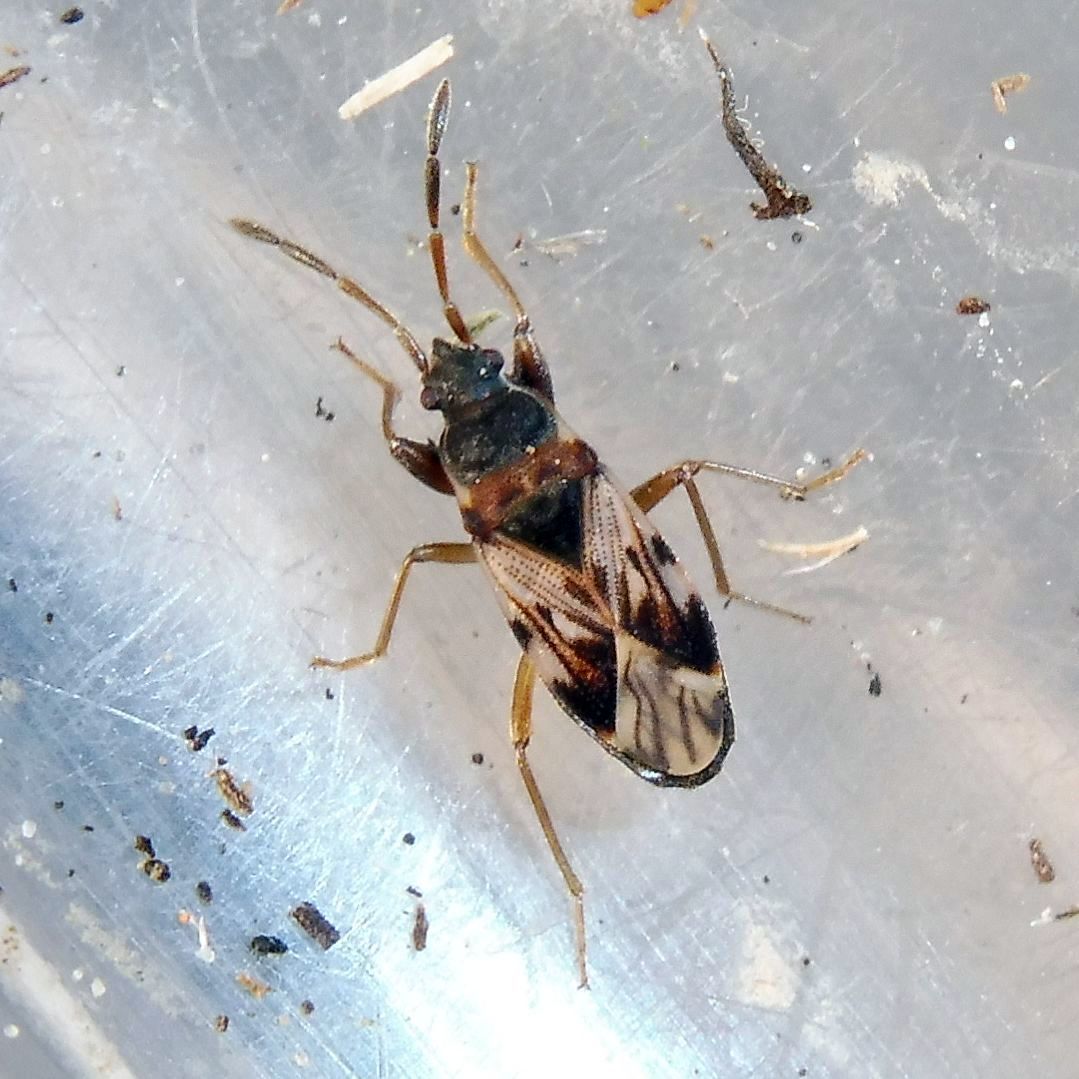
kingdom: Animalia
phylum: Arthropoda
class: Insecta
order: Hemiptera
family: Rhyparochromidae
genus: Scolopostethus
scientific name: Scolopostethus affinis
